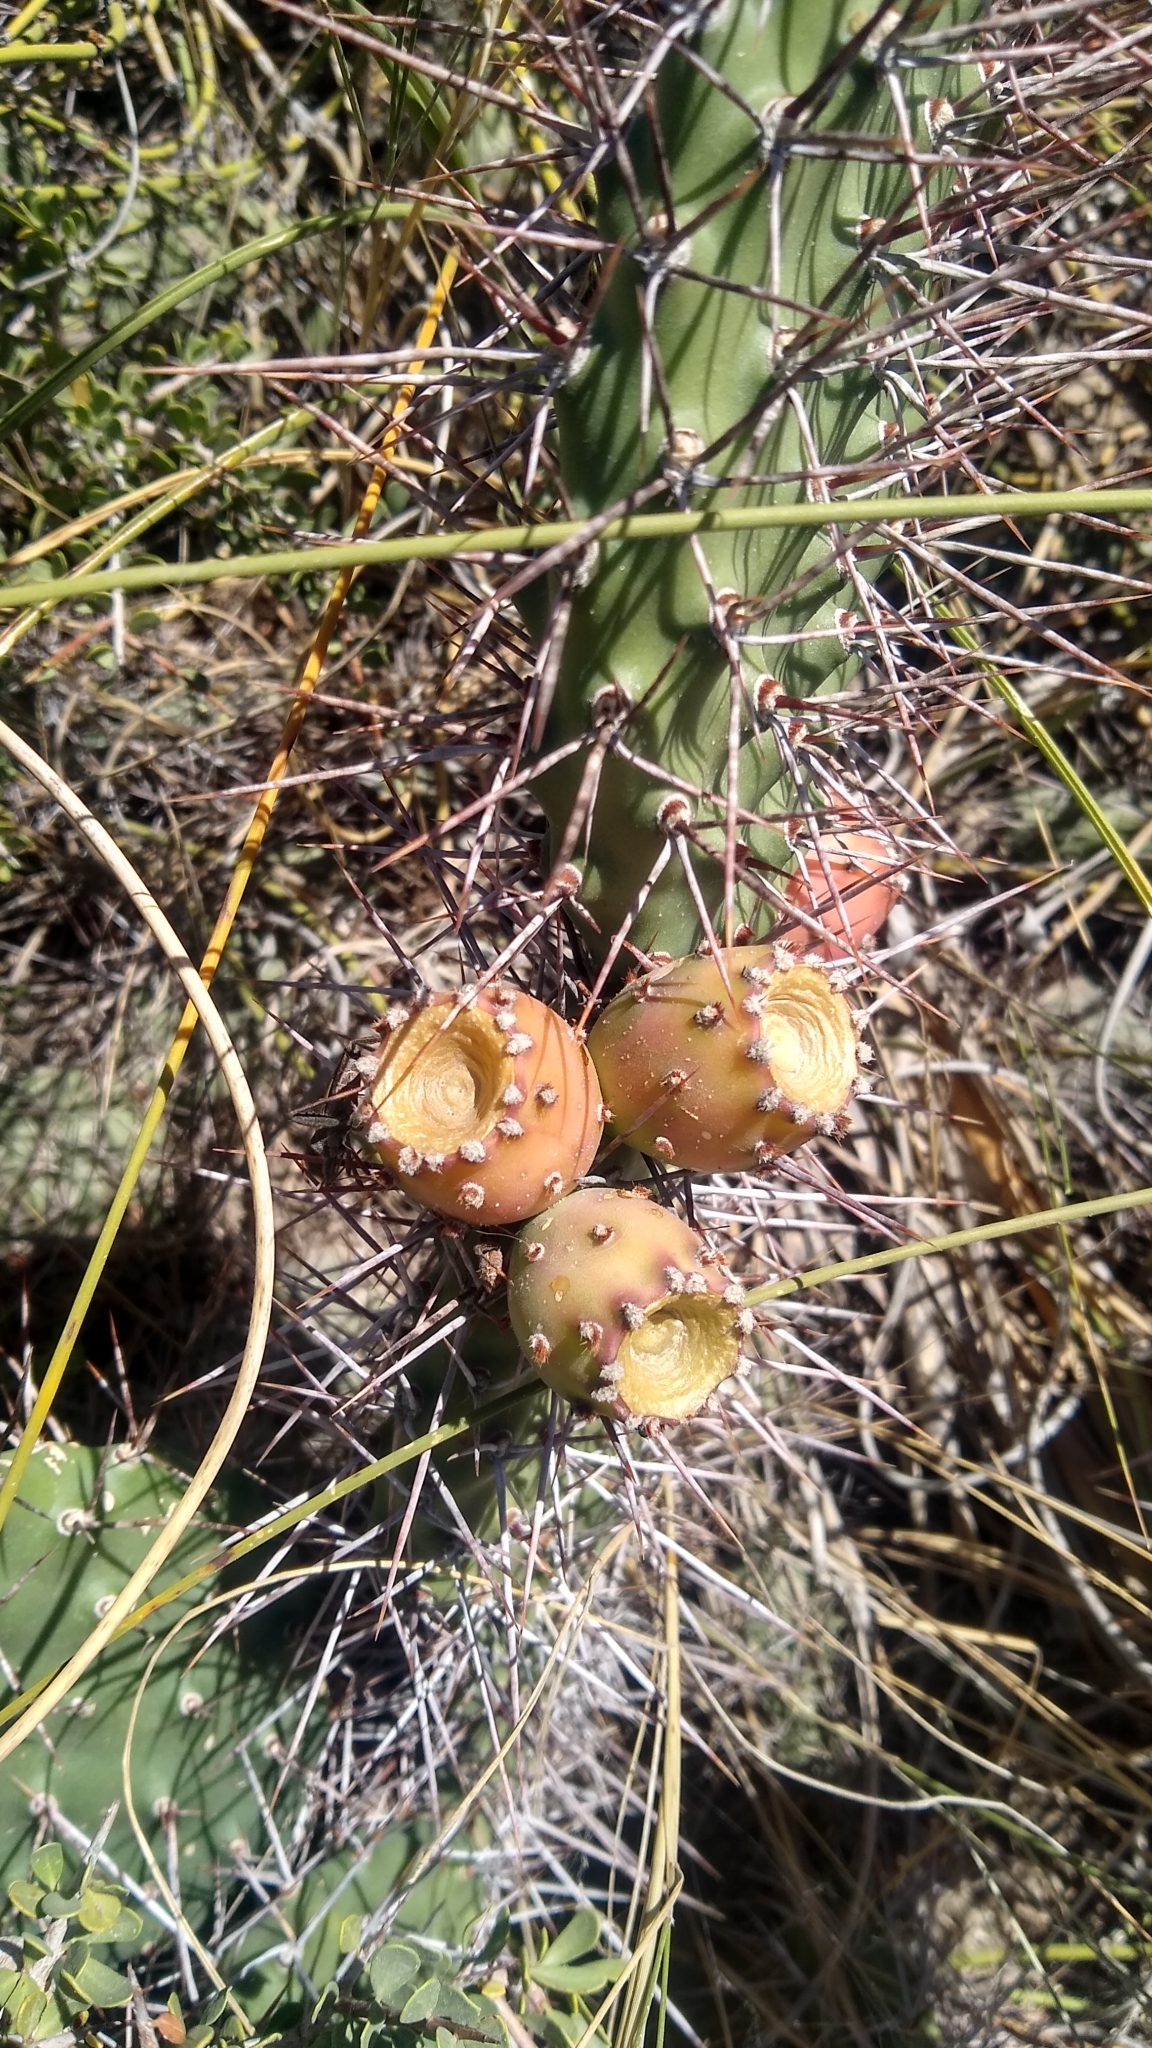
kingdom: Plantae
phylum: Tracheophyta
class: Magnoliopsida
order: Caryophyllales
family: Cactaceae
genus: Opuntia
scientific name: Opuntia sulphurea
